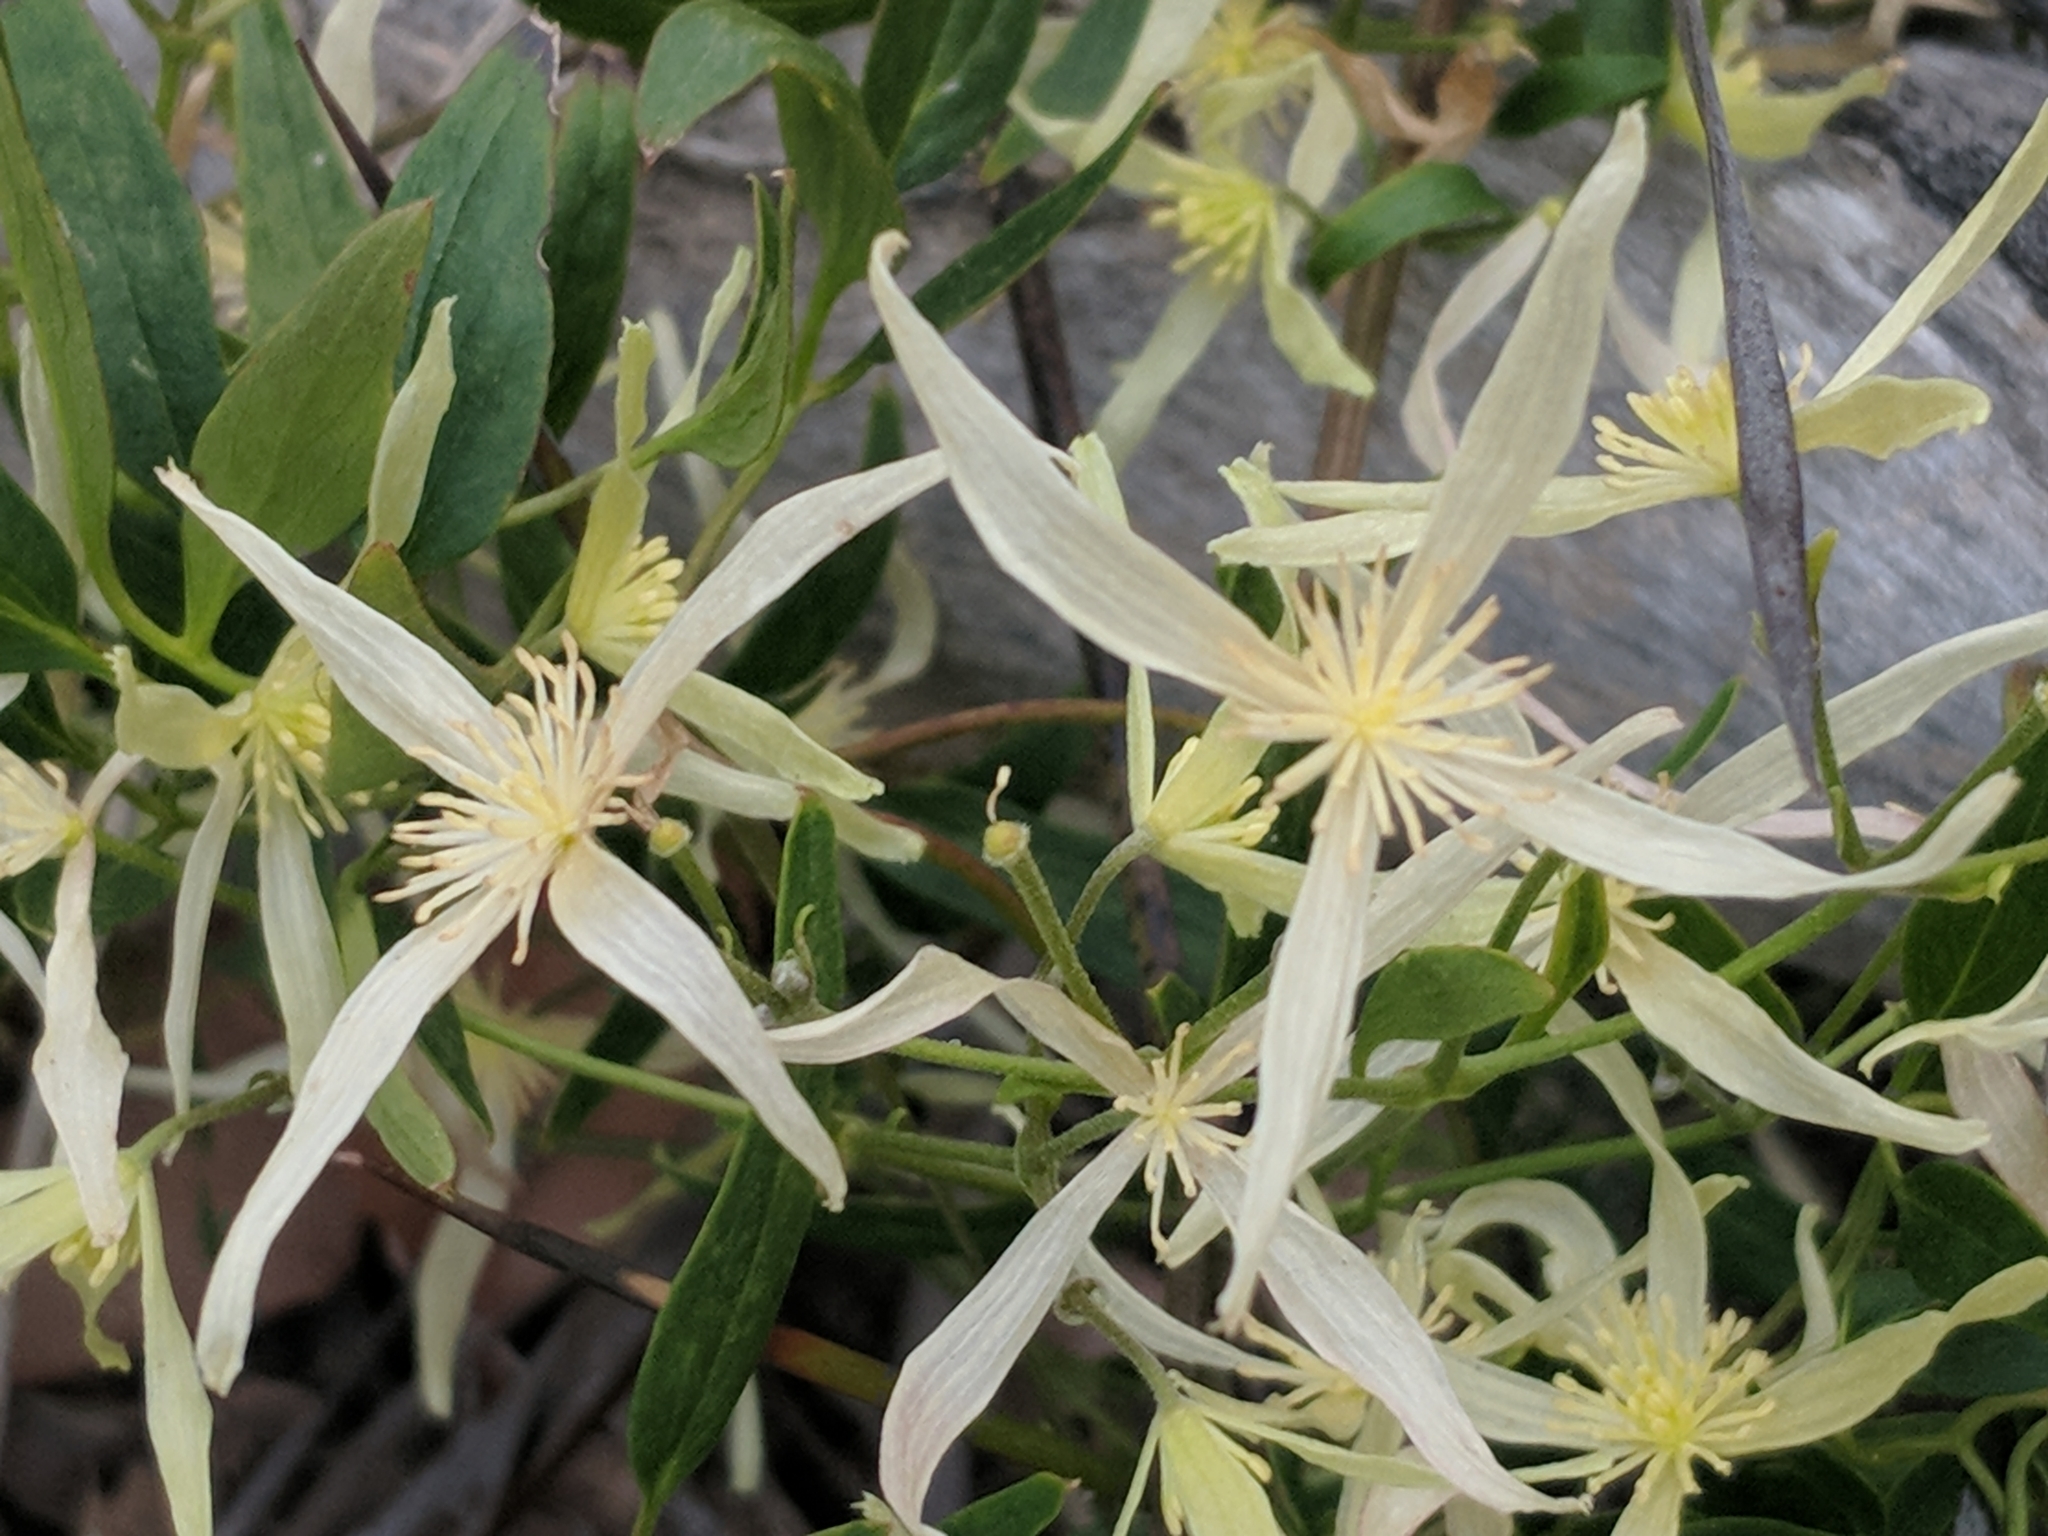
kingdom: Plantae
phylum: Tracheophyta
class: Magnoliopsida
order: Ranunculales
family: Ranunculaceae
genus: Clematis
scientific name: Clematis microphylla
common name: Headachevine
